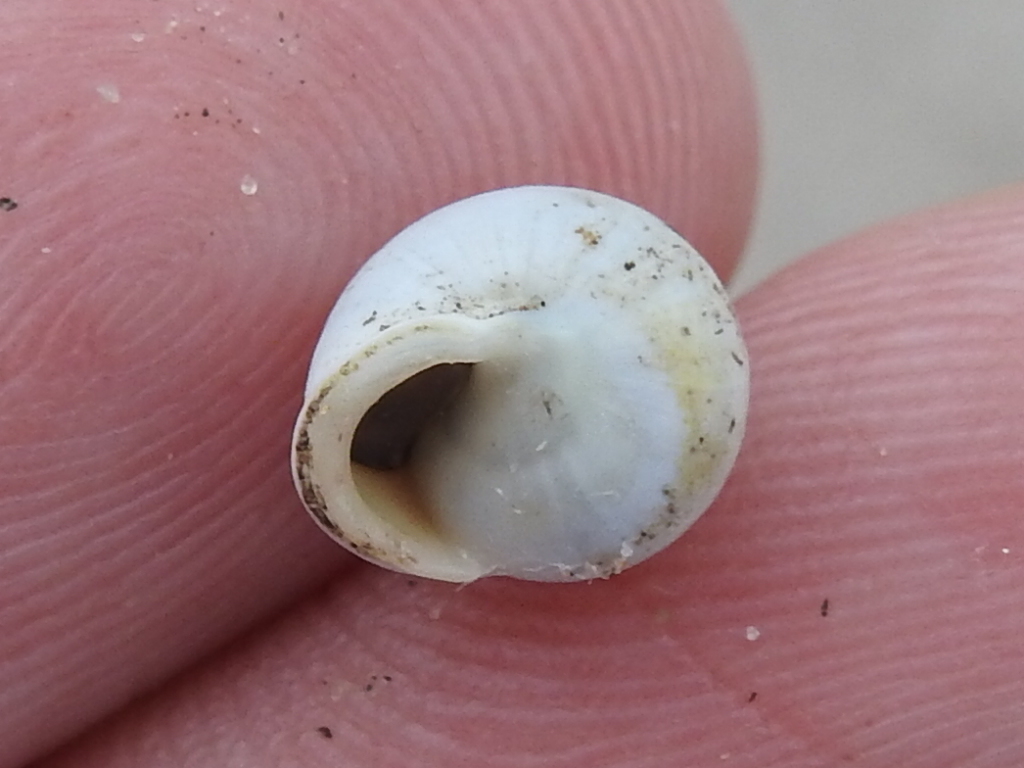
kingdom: Animalia
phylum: Mollusca
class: Gastropoda
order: Cycloneritida
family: Helicinidae
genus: Helicina
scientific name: Helicina orbiculata
